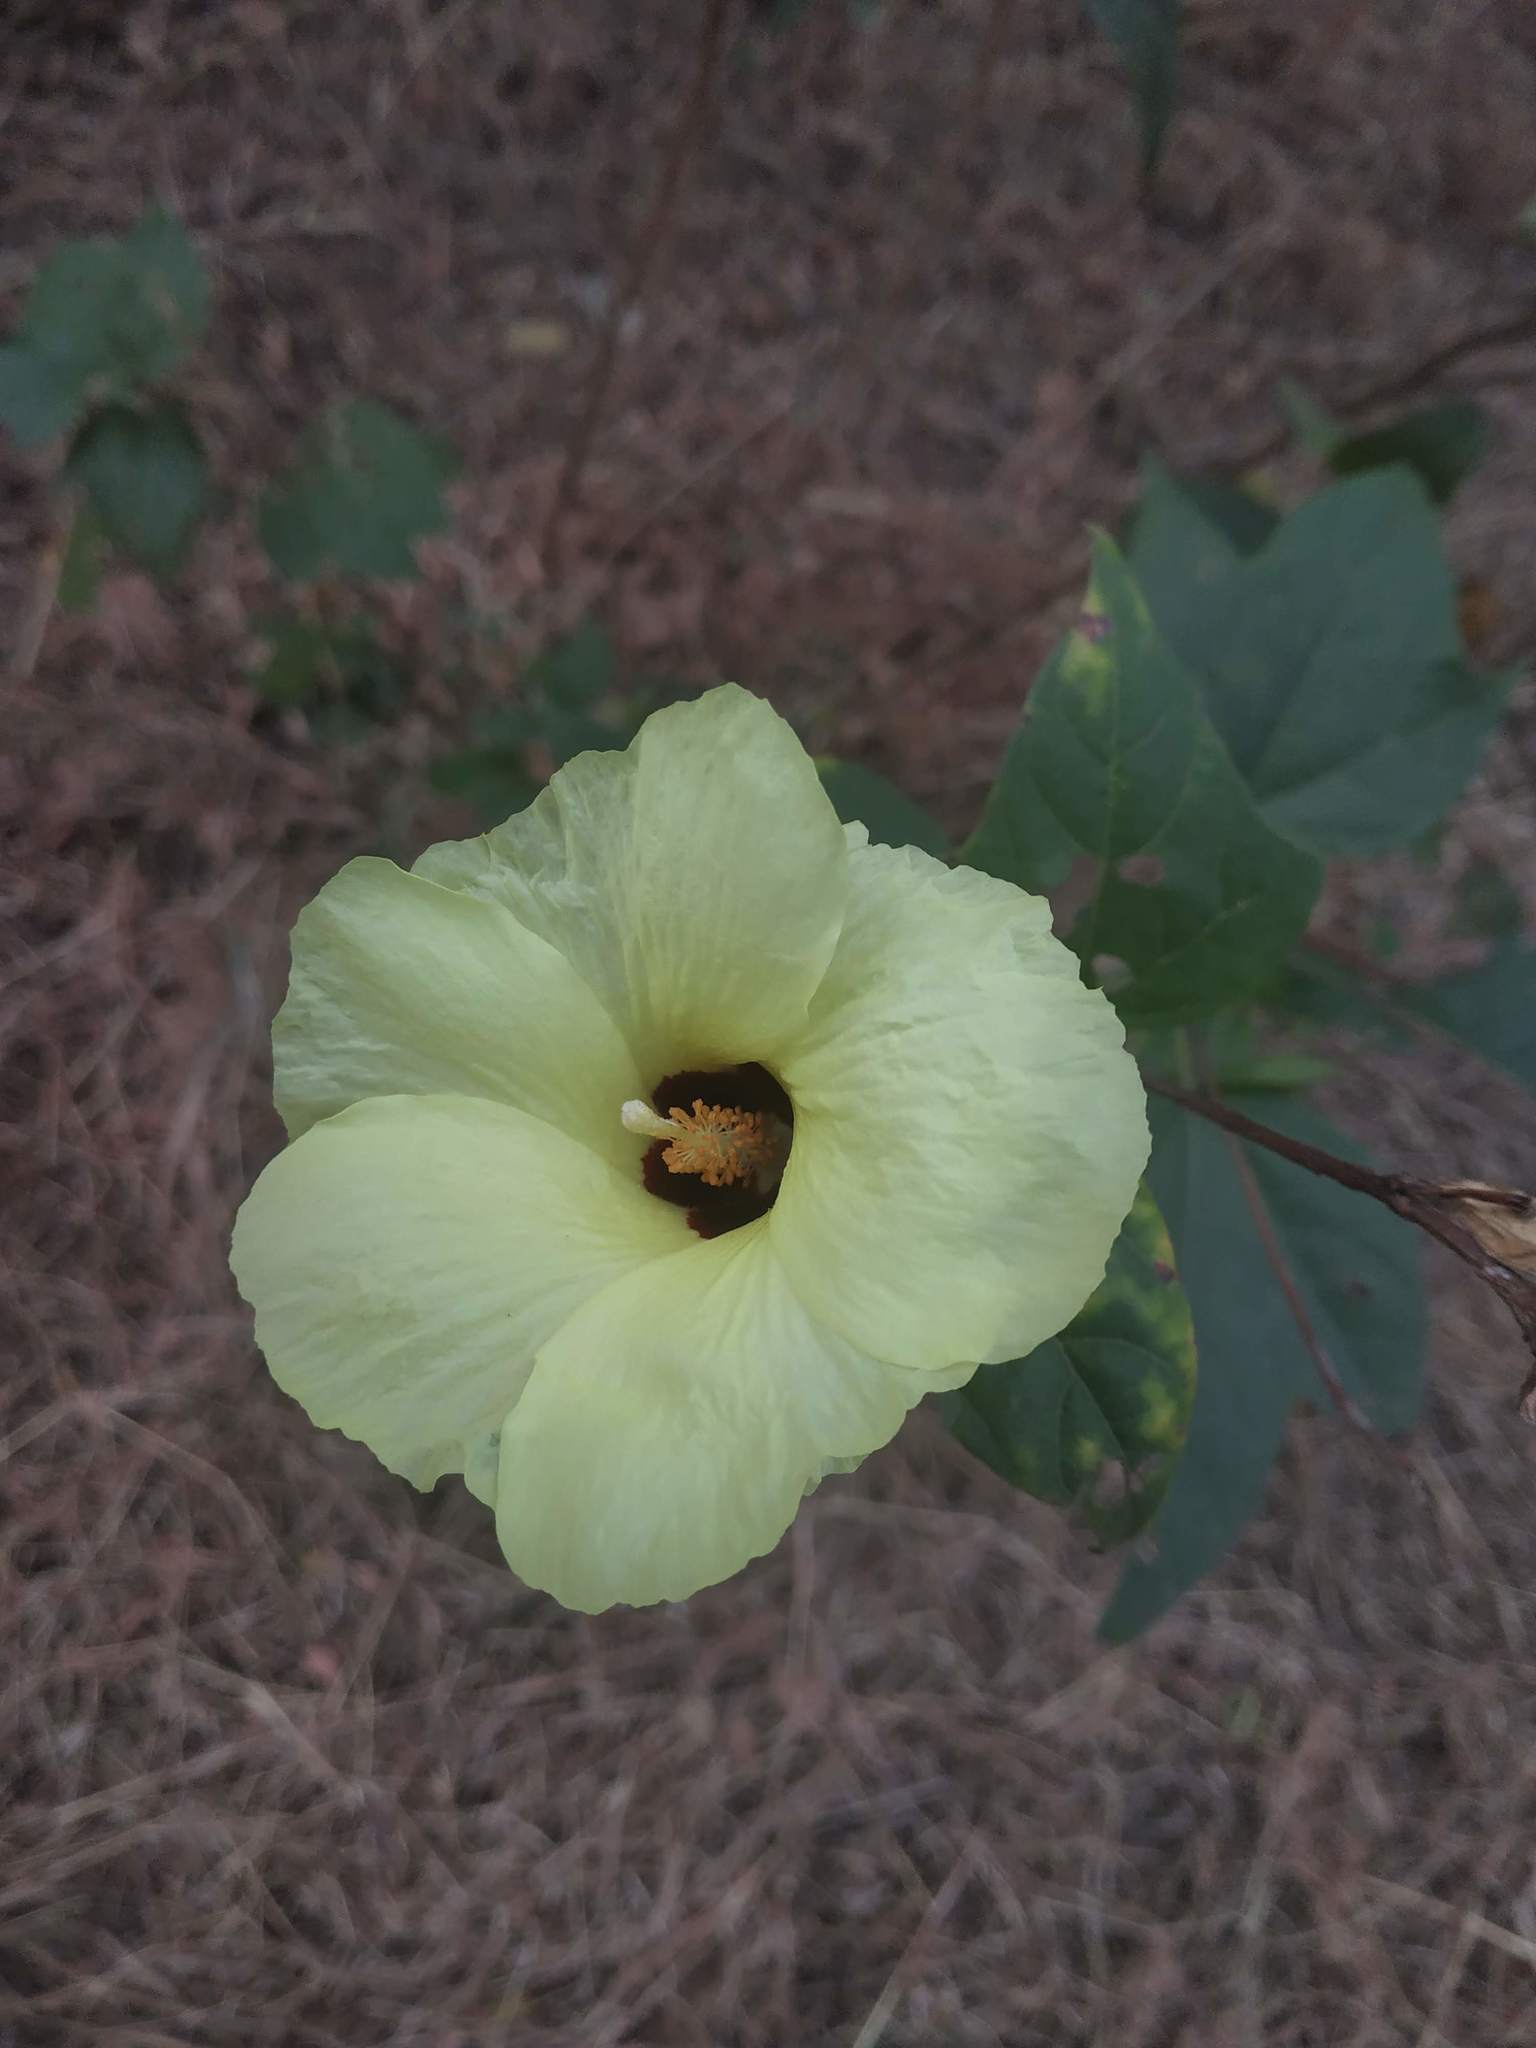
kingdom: Plantae
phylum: Tracheophyta
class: Magnoliopsida
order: Malvales
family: Malvaceae
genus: Thespesia
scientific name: Thespesia lampas
